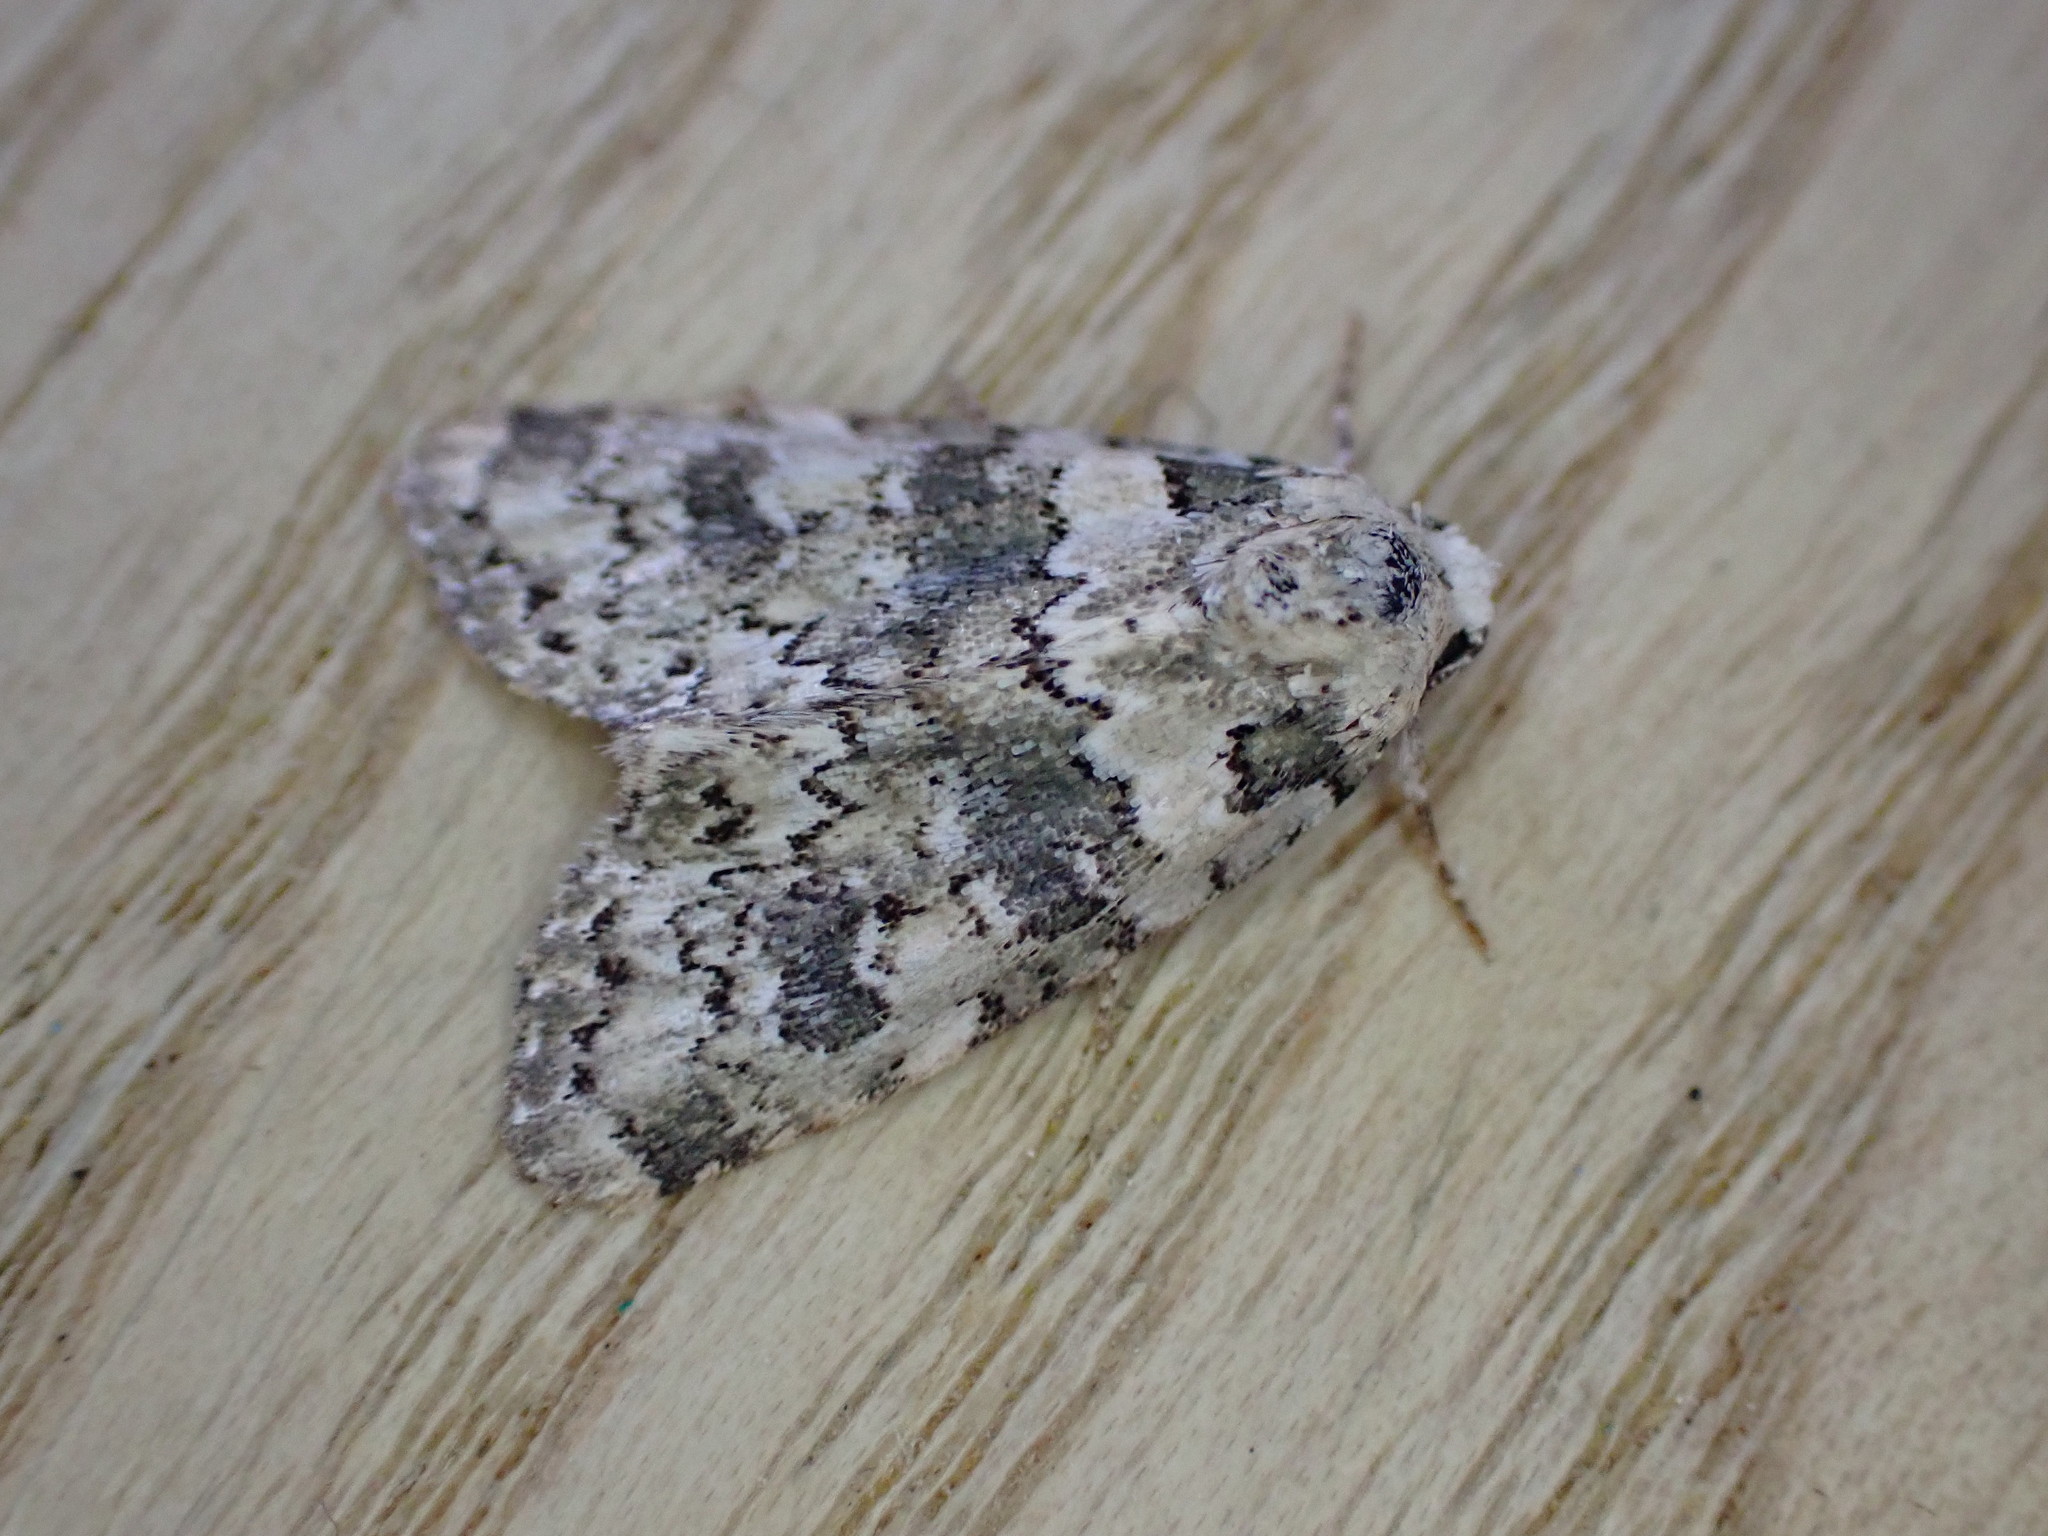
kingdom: Animalia
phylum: Arthropoda
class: Insecta
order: Lepidoptera
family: Noctuidae
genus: Bryophila
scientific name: Bryophila domestica
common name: Marbled beauty
